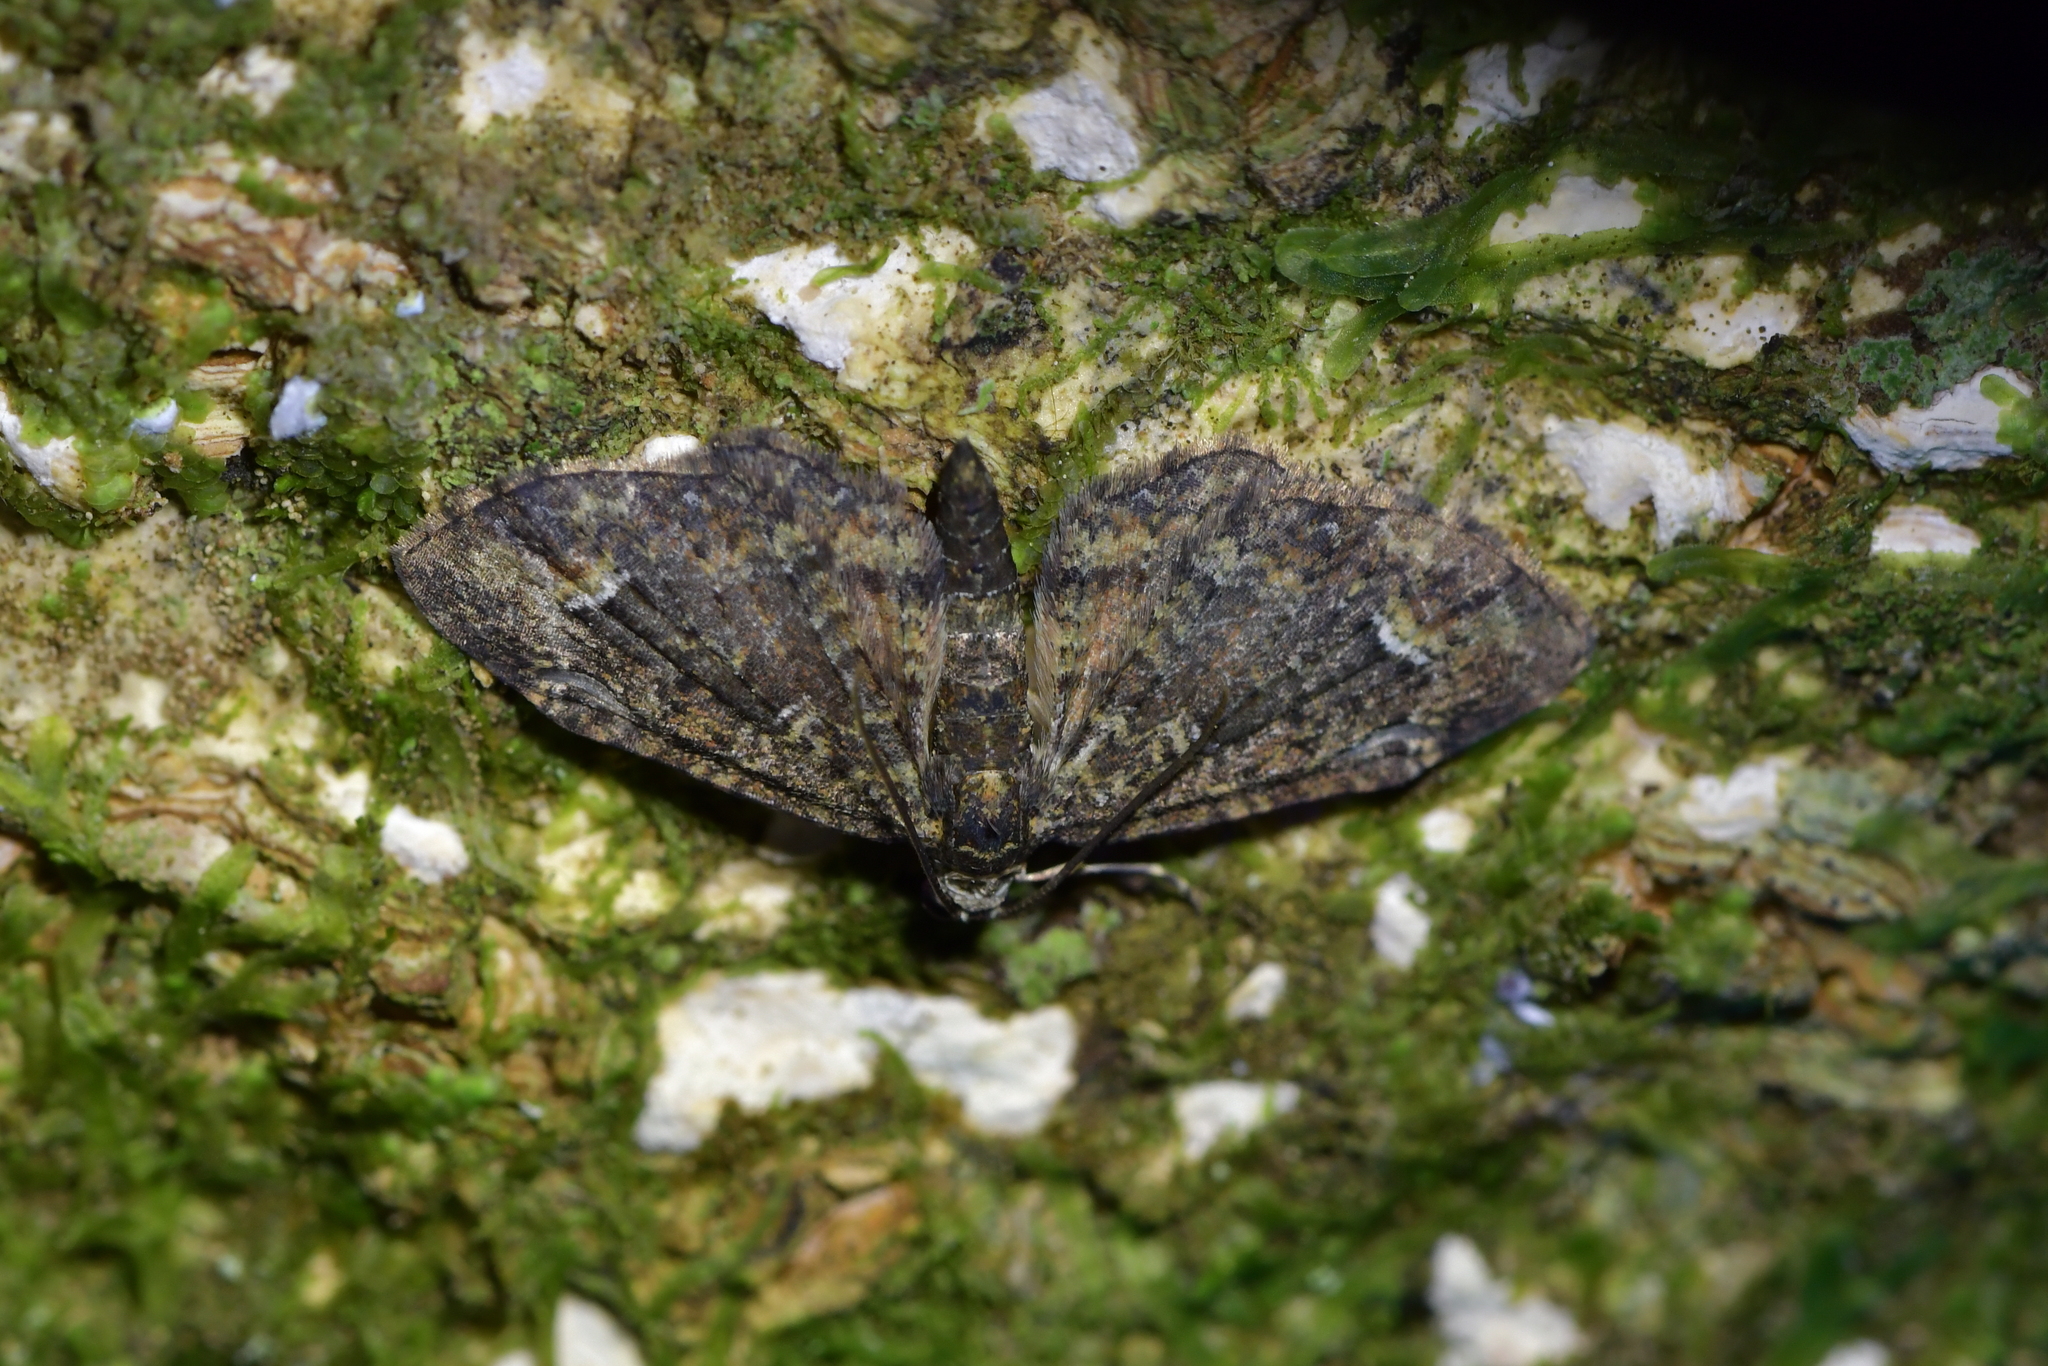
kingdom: Animalia
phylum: Arthropoda
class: Insecta
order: Lepidoptera
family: Geometridae
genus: Pasiphilodes
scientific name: Pasiphilodes testulata
